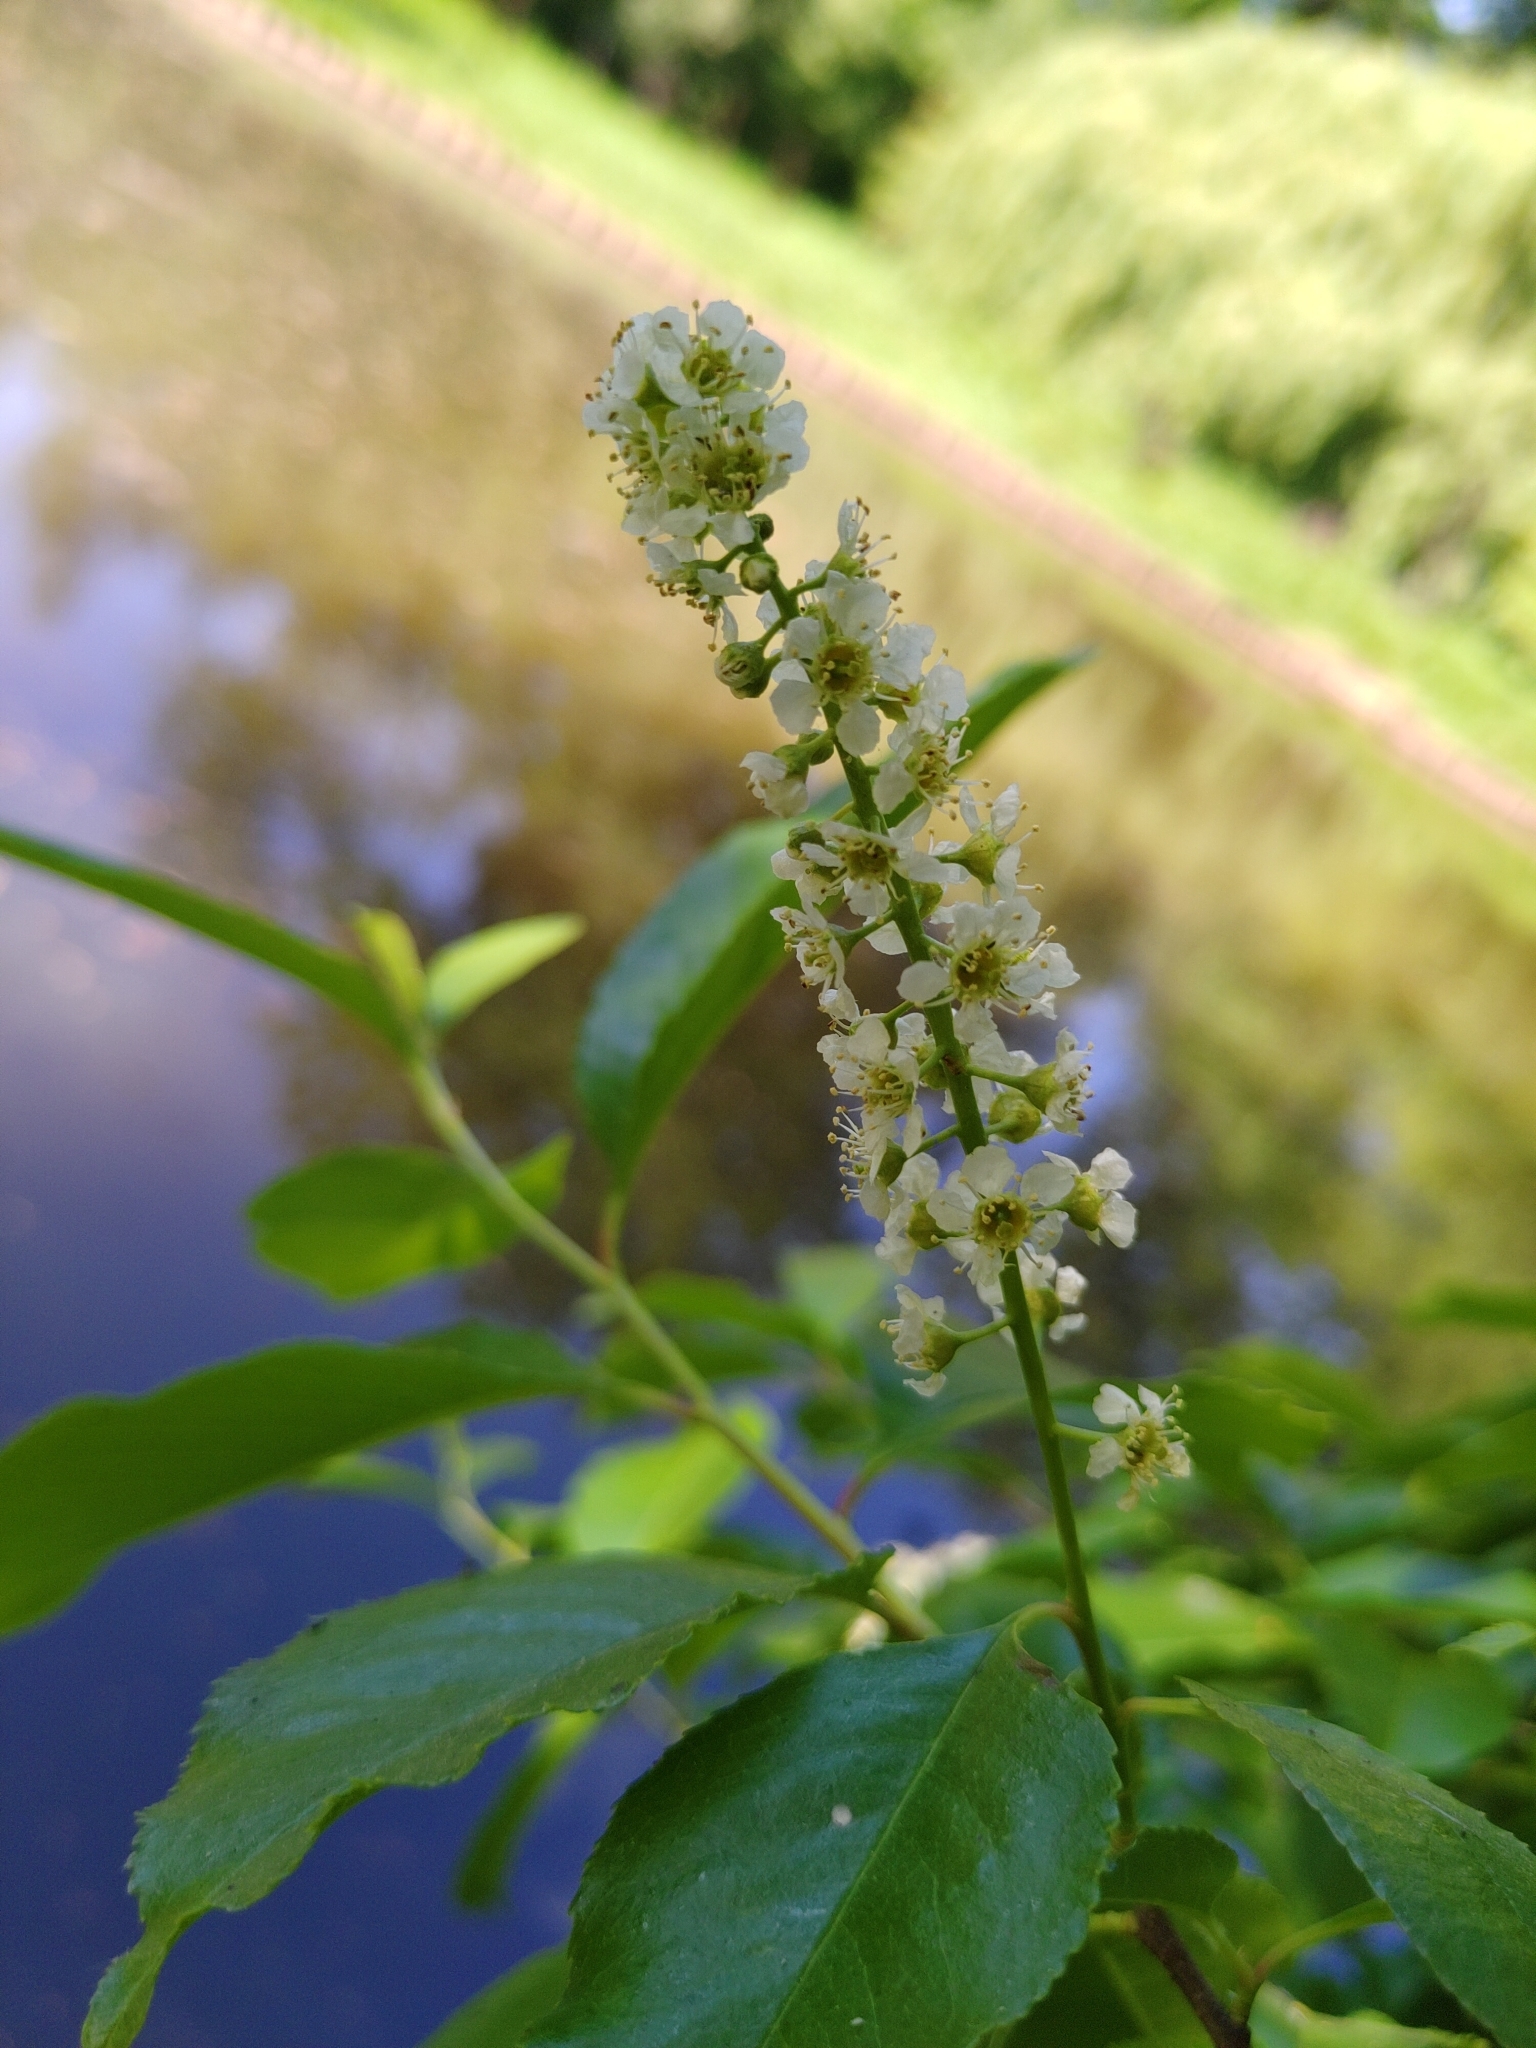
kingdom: Plantae
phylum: Tracheophyta
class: Magnoliopsida
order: Rosales
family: Rosaceae
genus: Prunus
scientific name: Prunus serotina
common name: Black cherry
